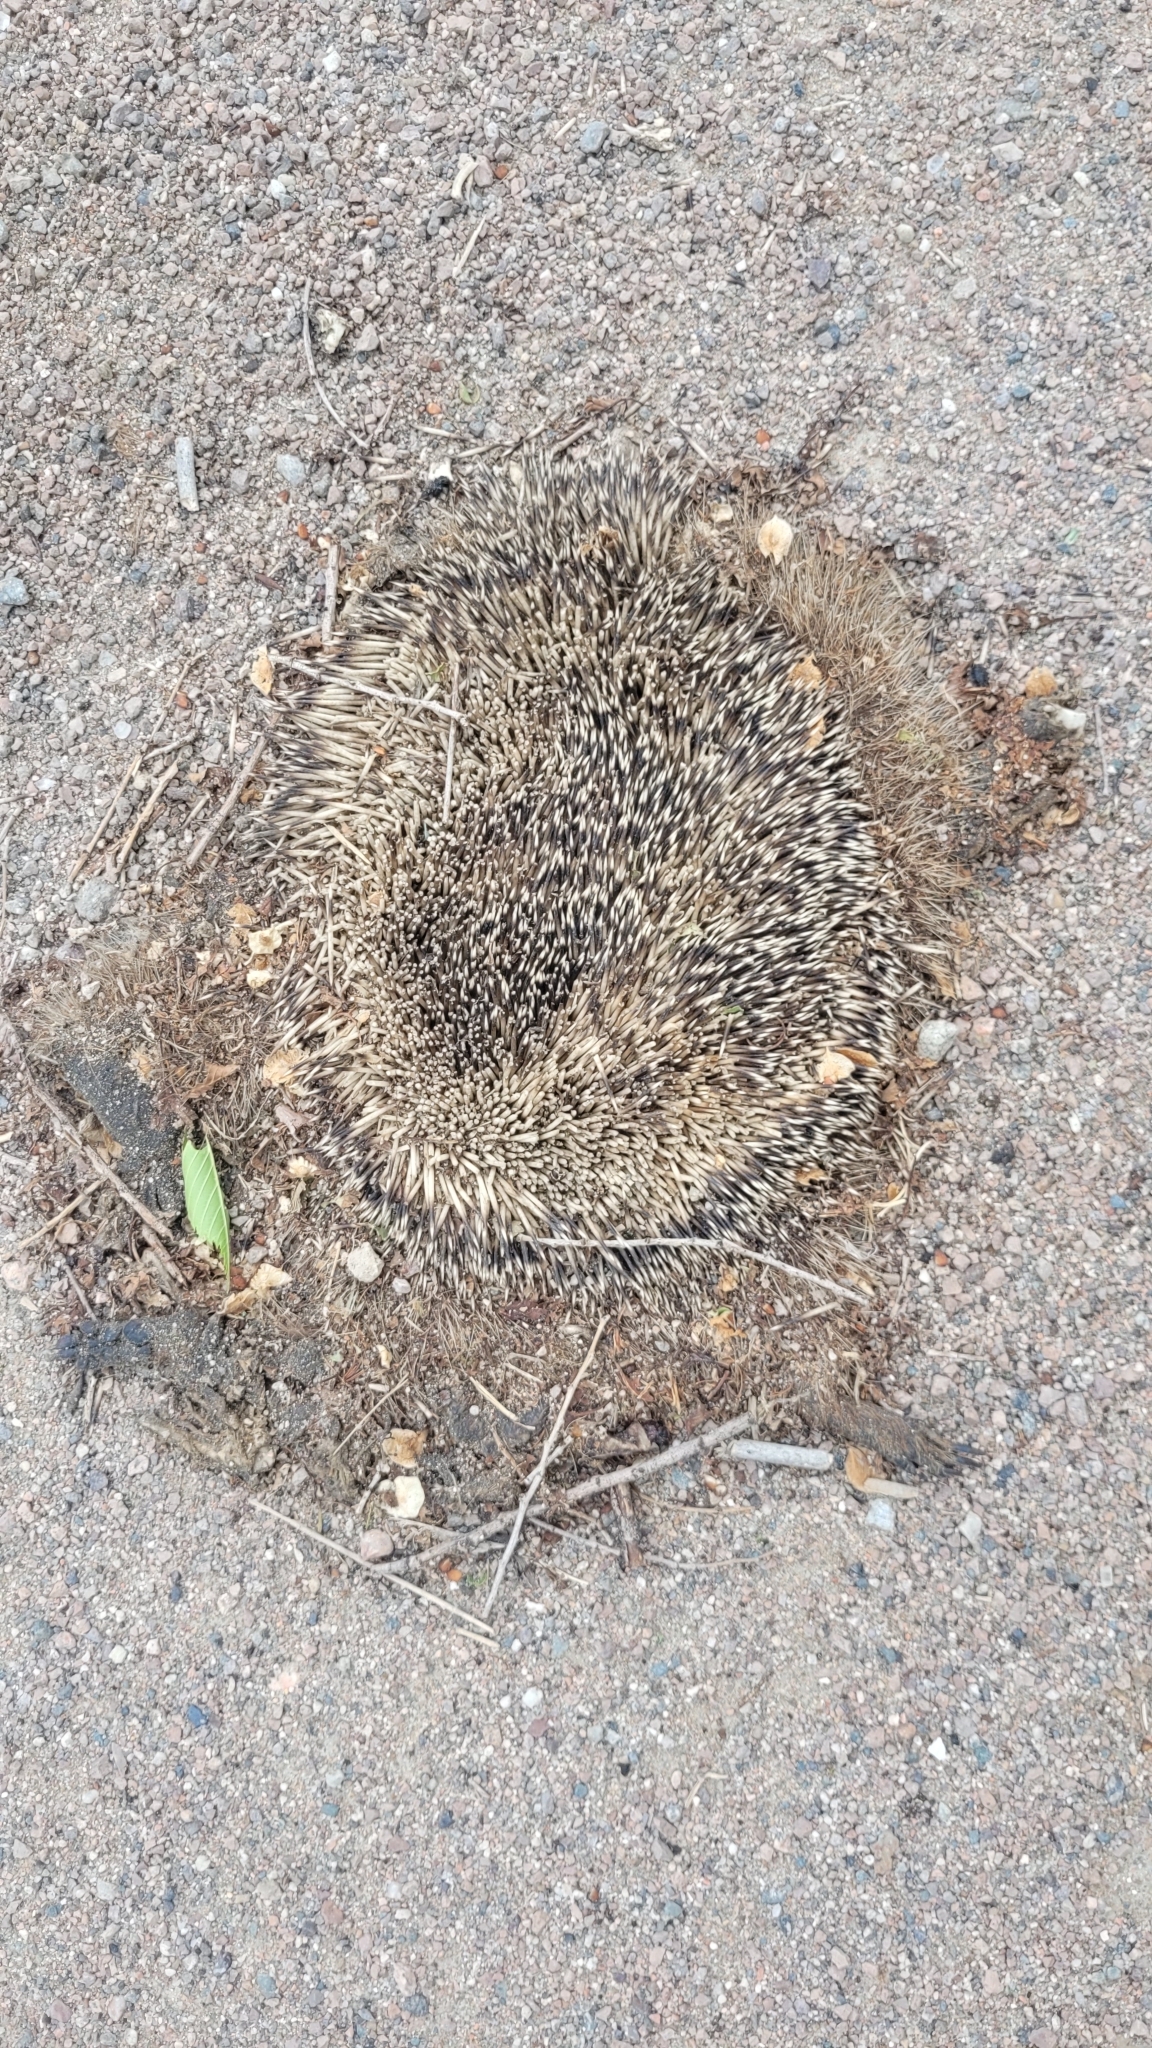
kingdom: Animalia
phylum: Chordata
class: Mammalia
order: Erinaceomorpha
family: Erinaceidae
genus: Hemiechinus
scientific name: Hemiechinus auritus
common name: Long-eared hedgehog
